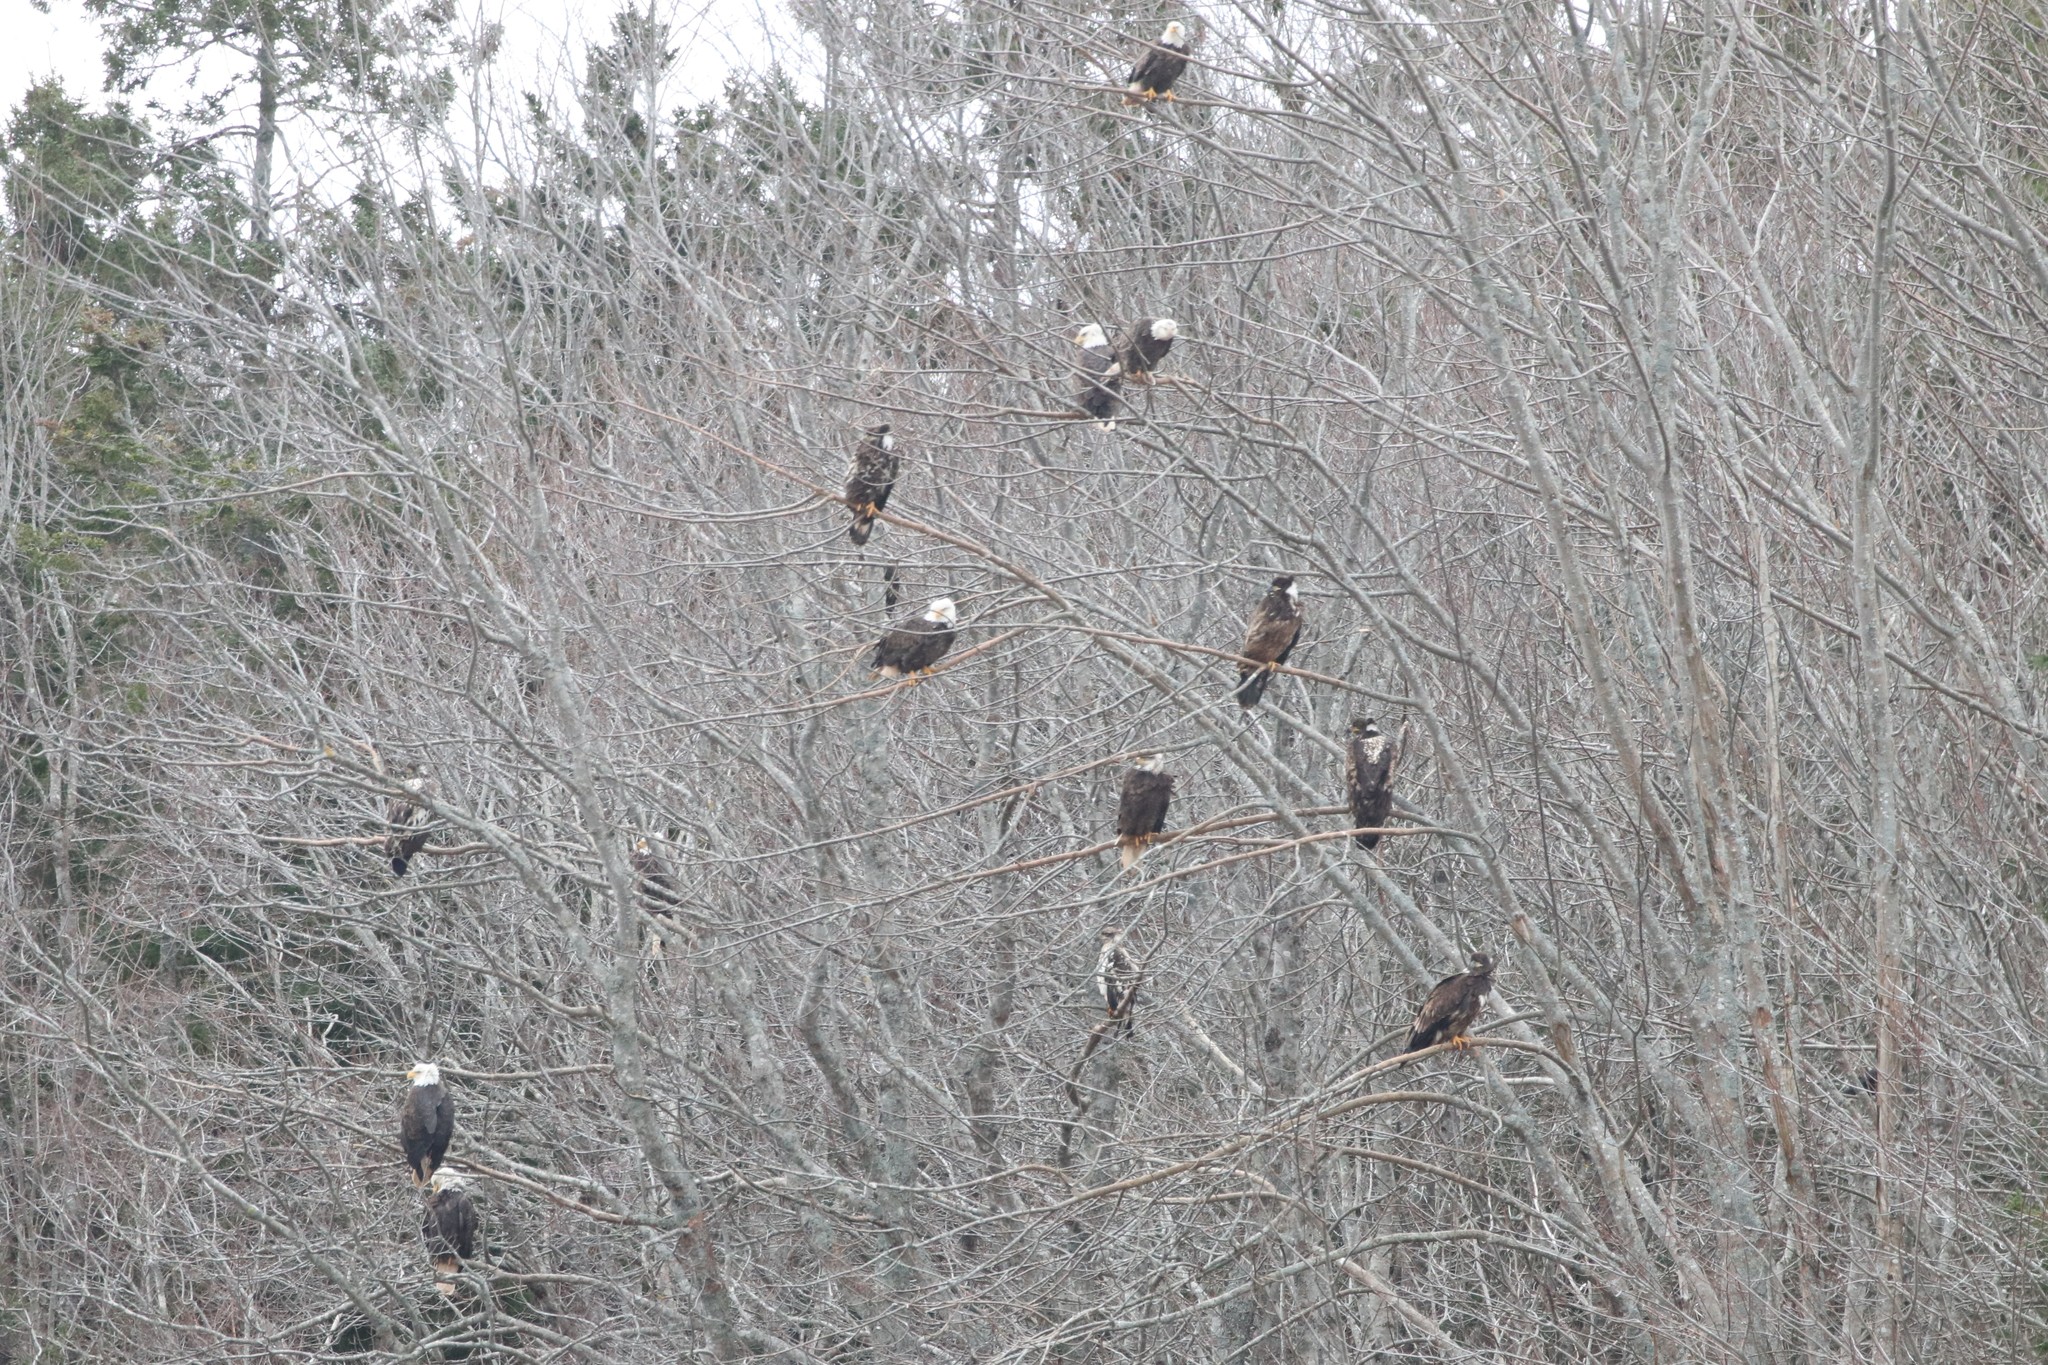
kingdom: Animalia
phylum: Chordata
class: Aves
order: Accipitriformes
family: Accipitridae
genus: Haliaeetus
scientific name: Haliaeetus leucocephalus
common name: Bald eagle
